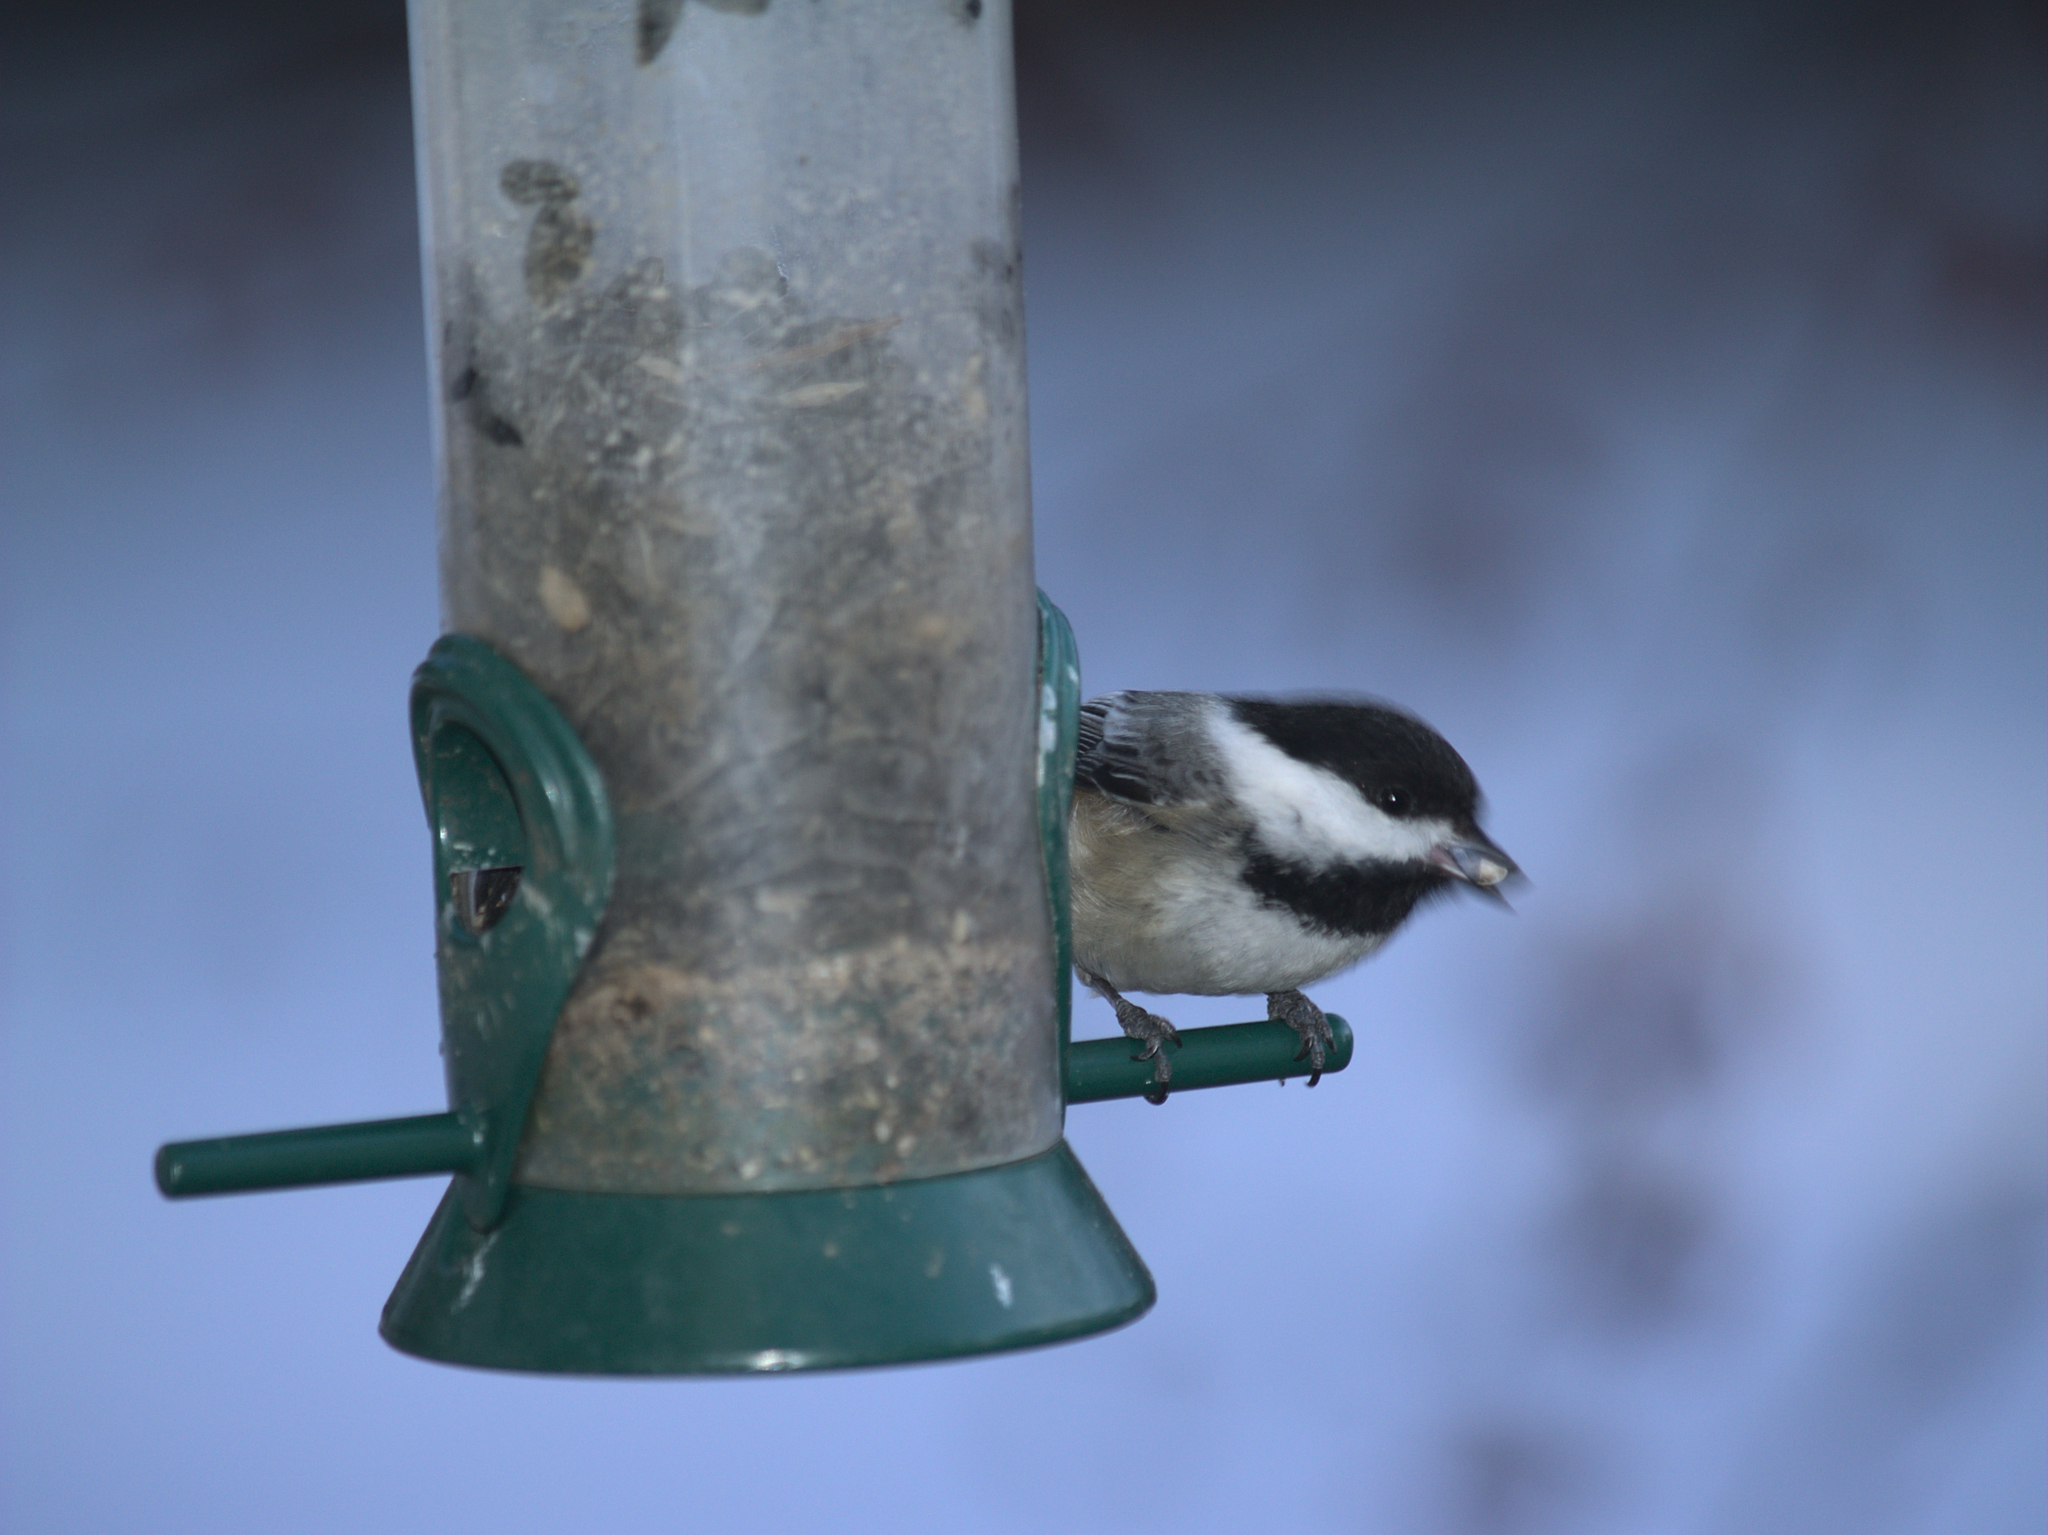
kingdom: Animalia
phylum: Chordata
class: Aves
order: Passeriformes
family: Paridae
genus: Poecile
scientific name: Poecile atricapillus
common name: Black-capped chickadee
